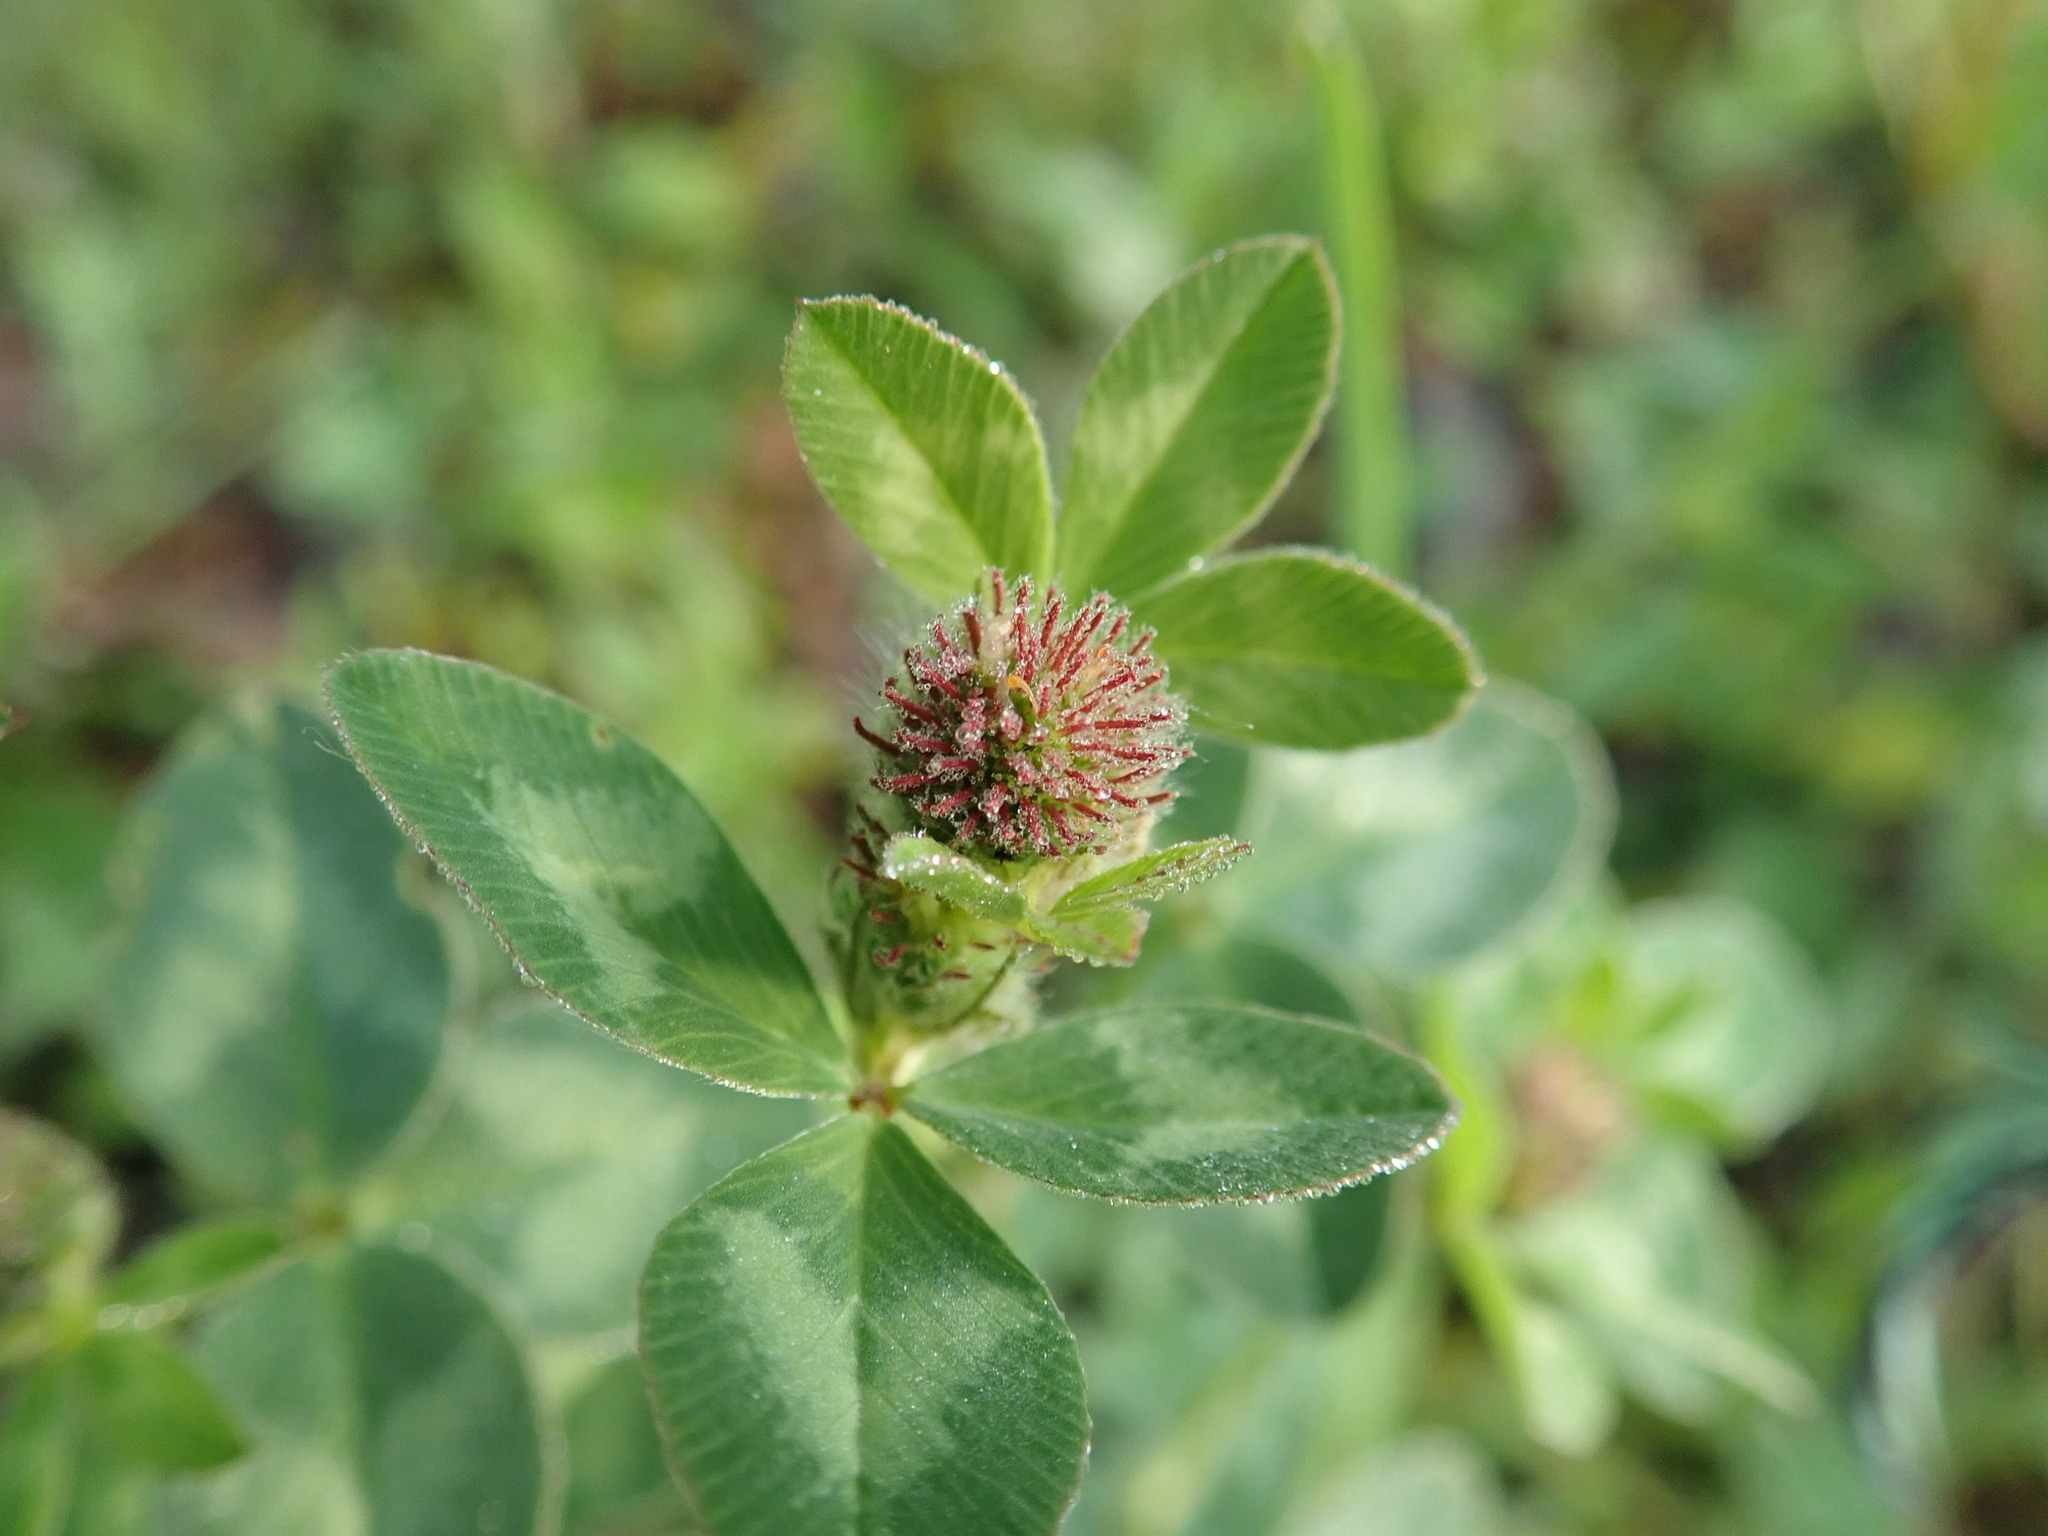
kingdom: Plantae
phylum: Tracheophyta
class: Magnoliopsida
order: Fabales
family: Fabaceae
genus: Trifolium
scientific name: Trifolium pratense
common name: Red clover
